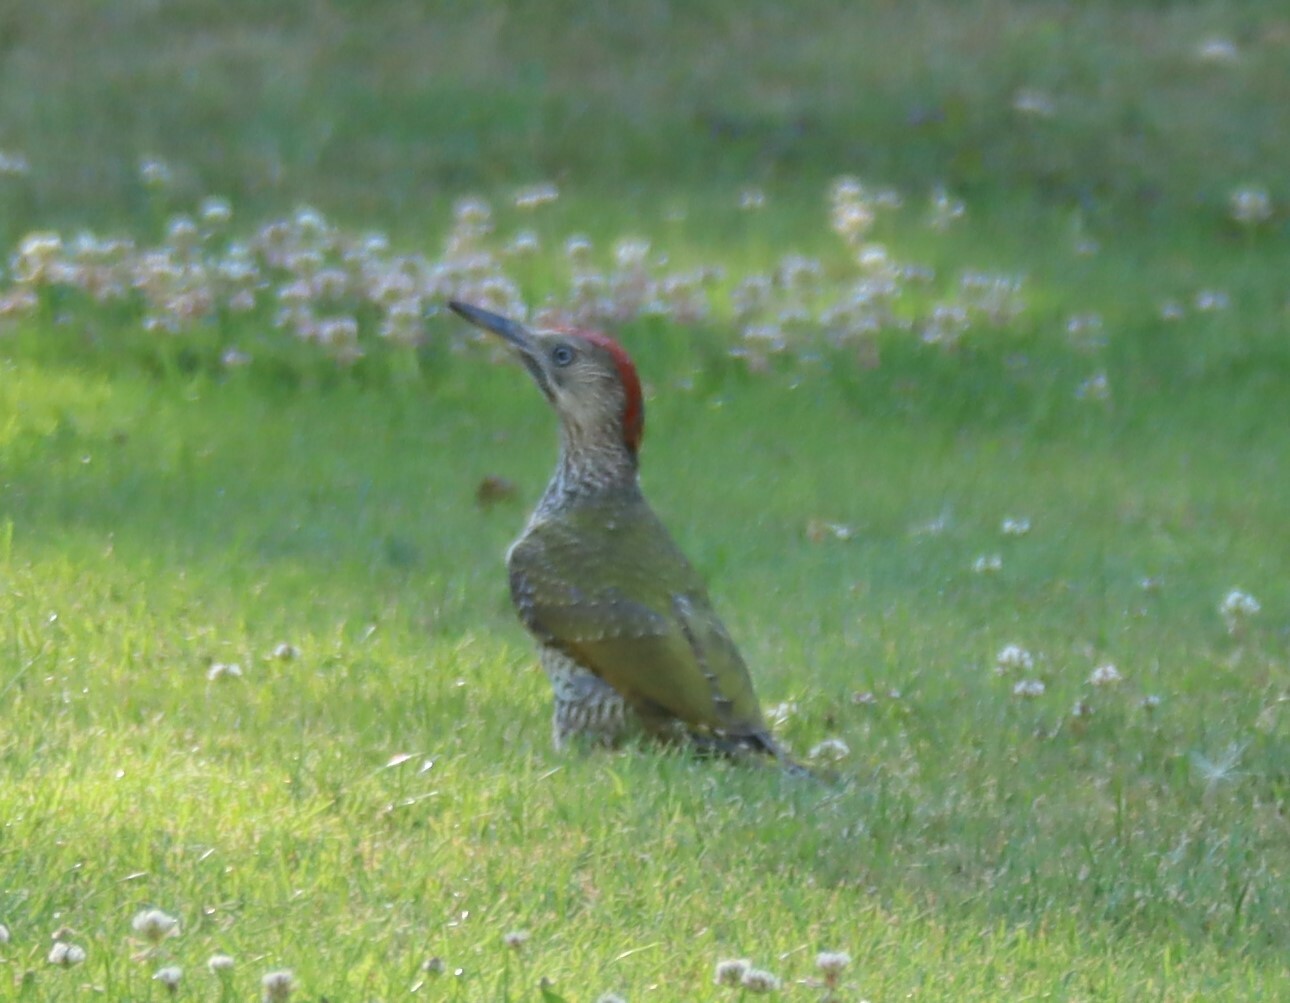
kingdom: Animalia
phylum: Chordata
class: Aves
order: Piciformes
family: Picidae
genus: Picus
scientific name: Picus viridis
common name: European green woodpecker
